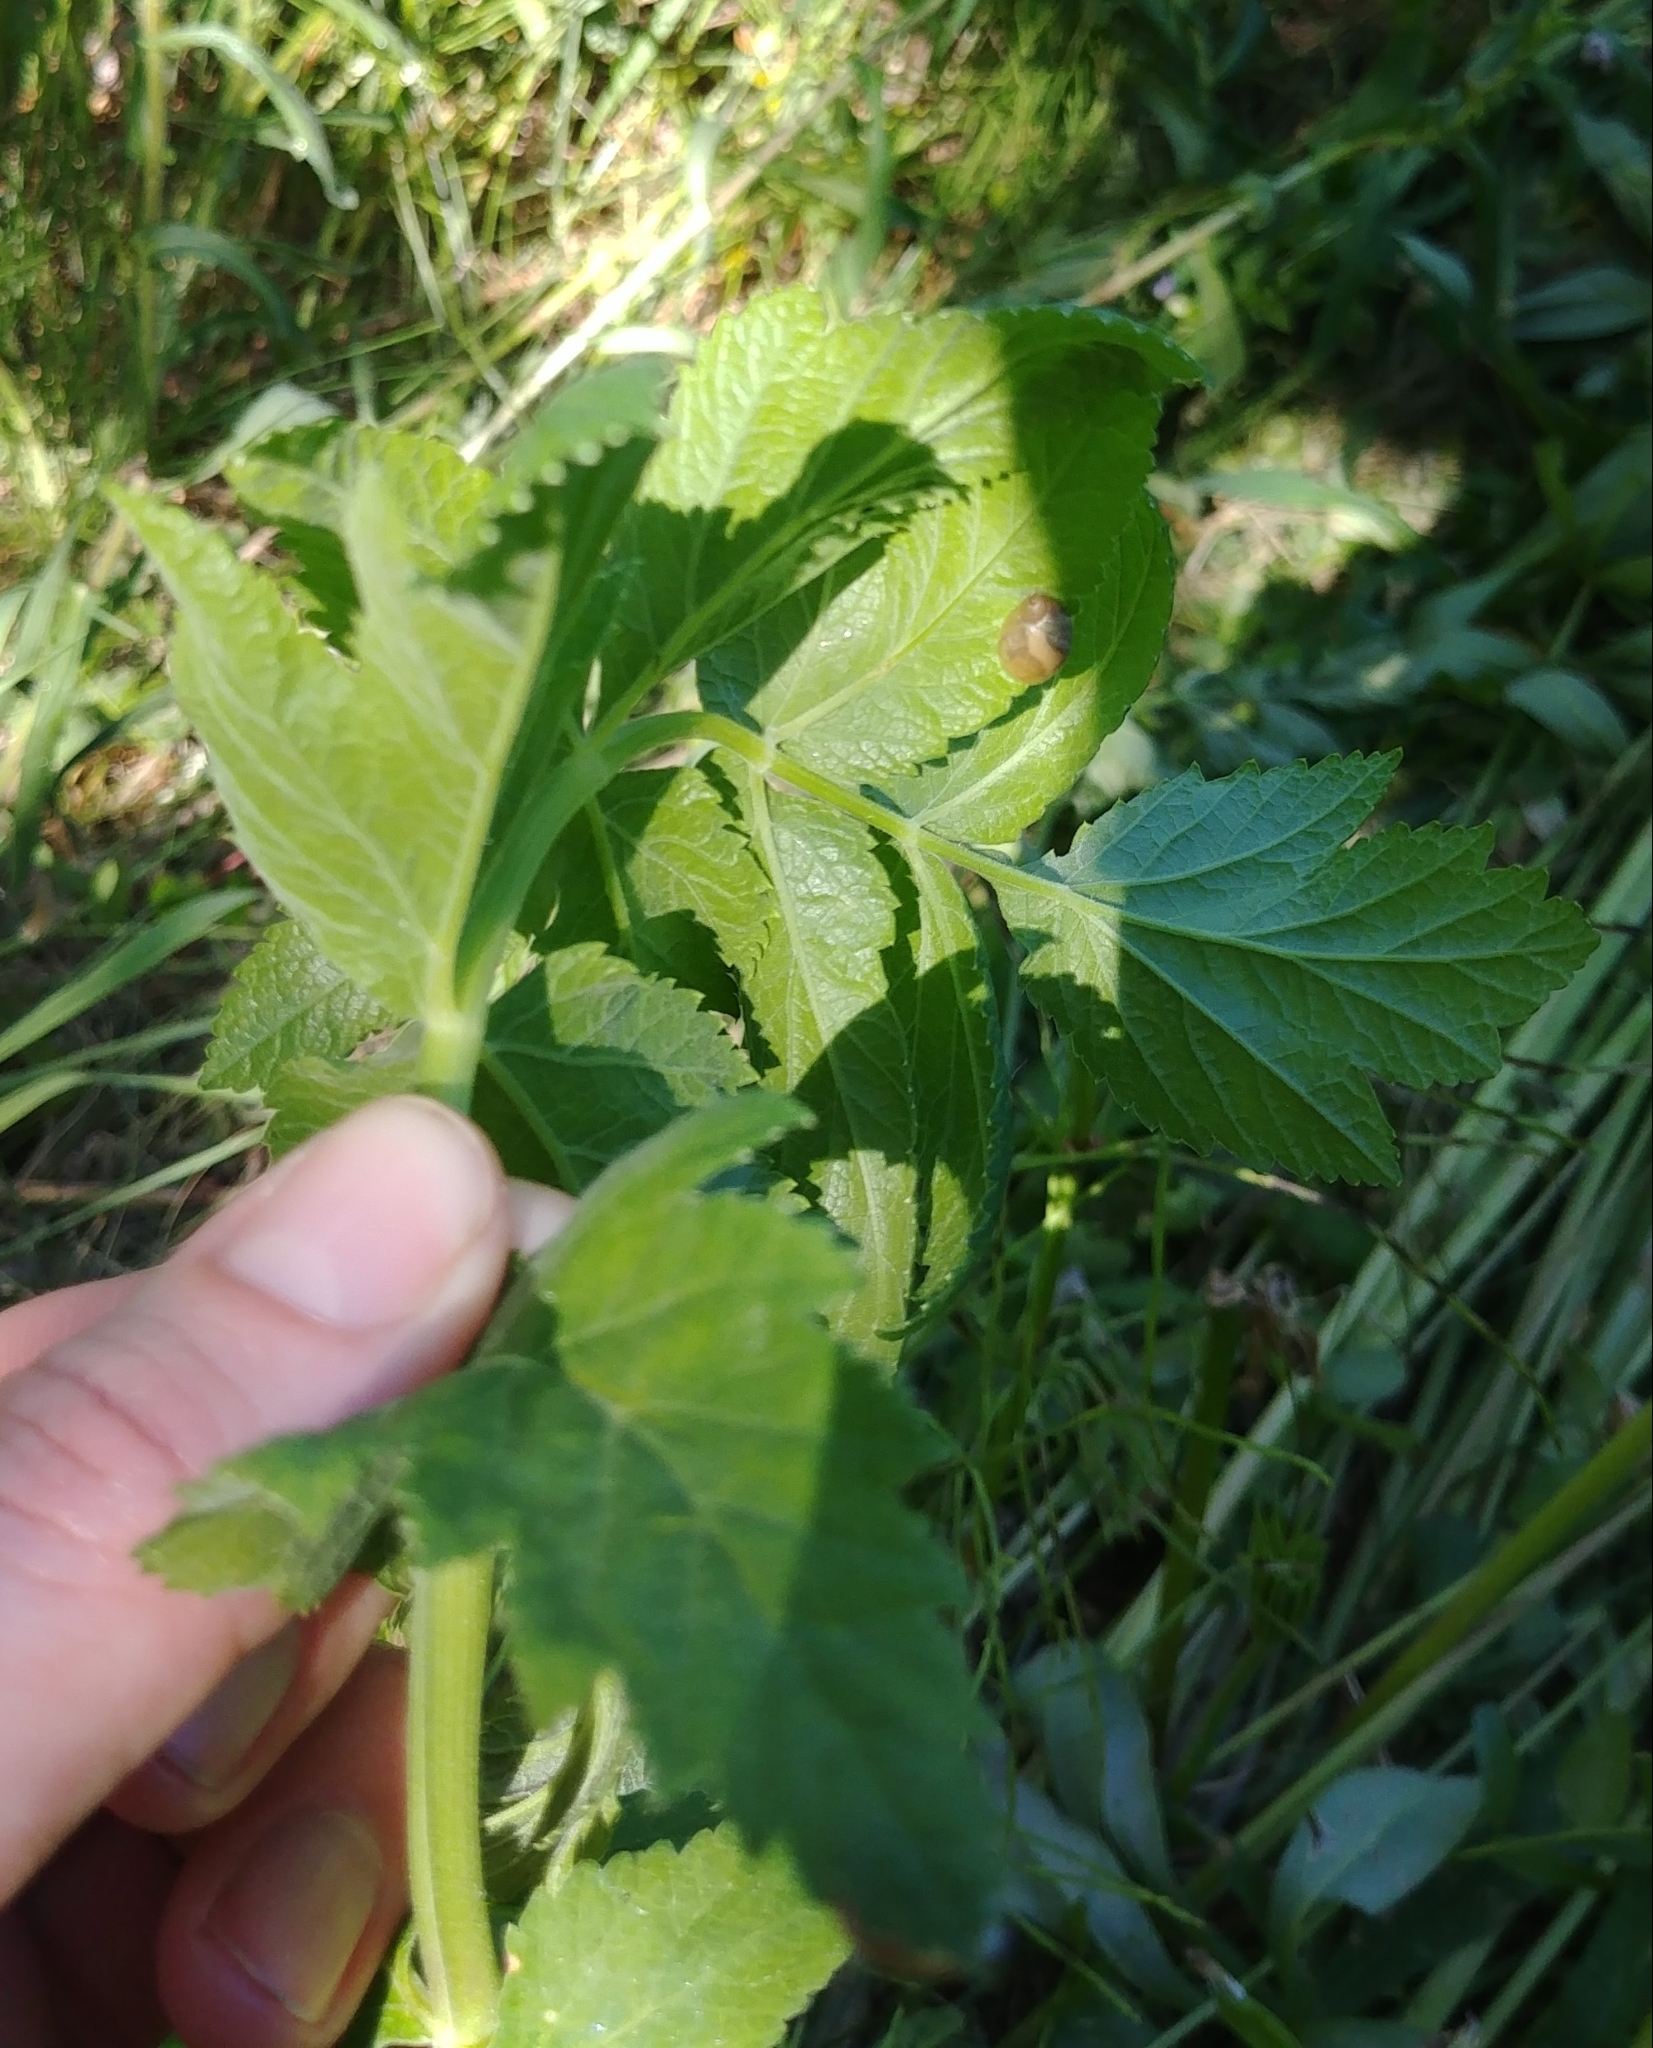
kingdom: Plantae
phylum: Tracheophyta
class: Magnoliopsida
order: Apiales
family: Apiaceae
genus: Pastinaca
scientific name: Pastinaca sativa
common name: Wild parsnip
